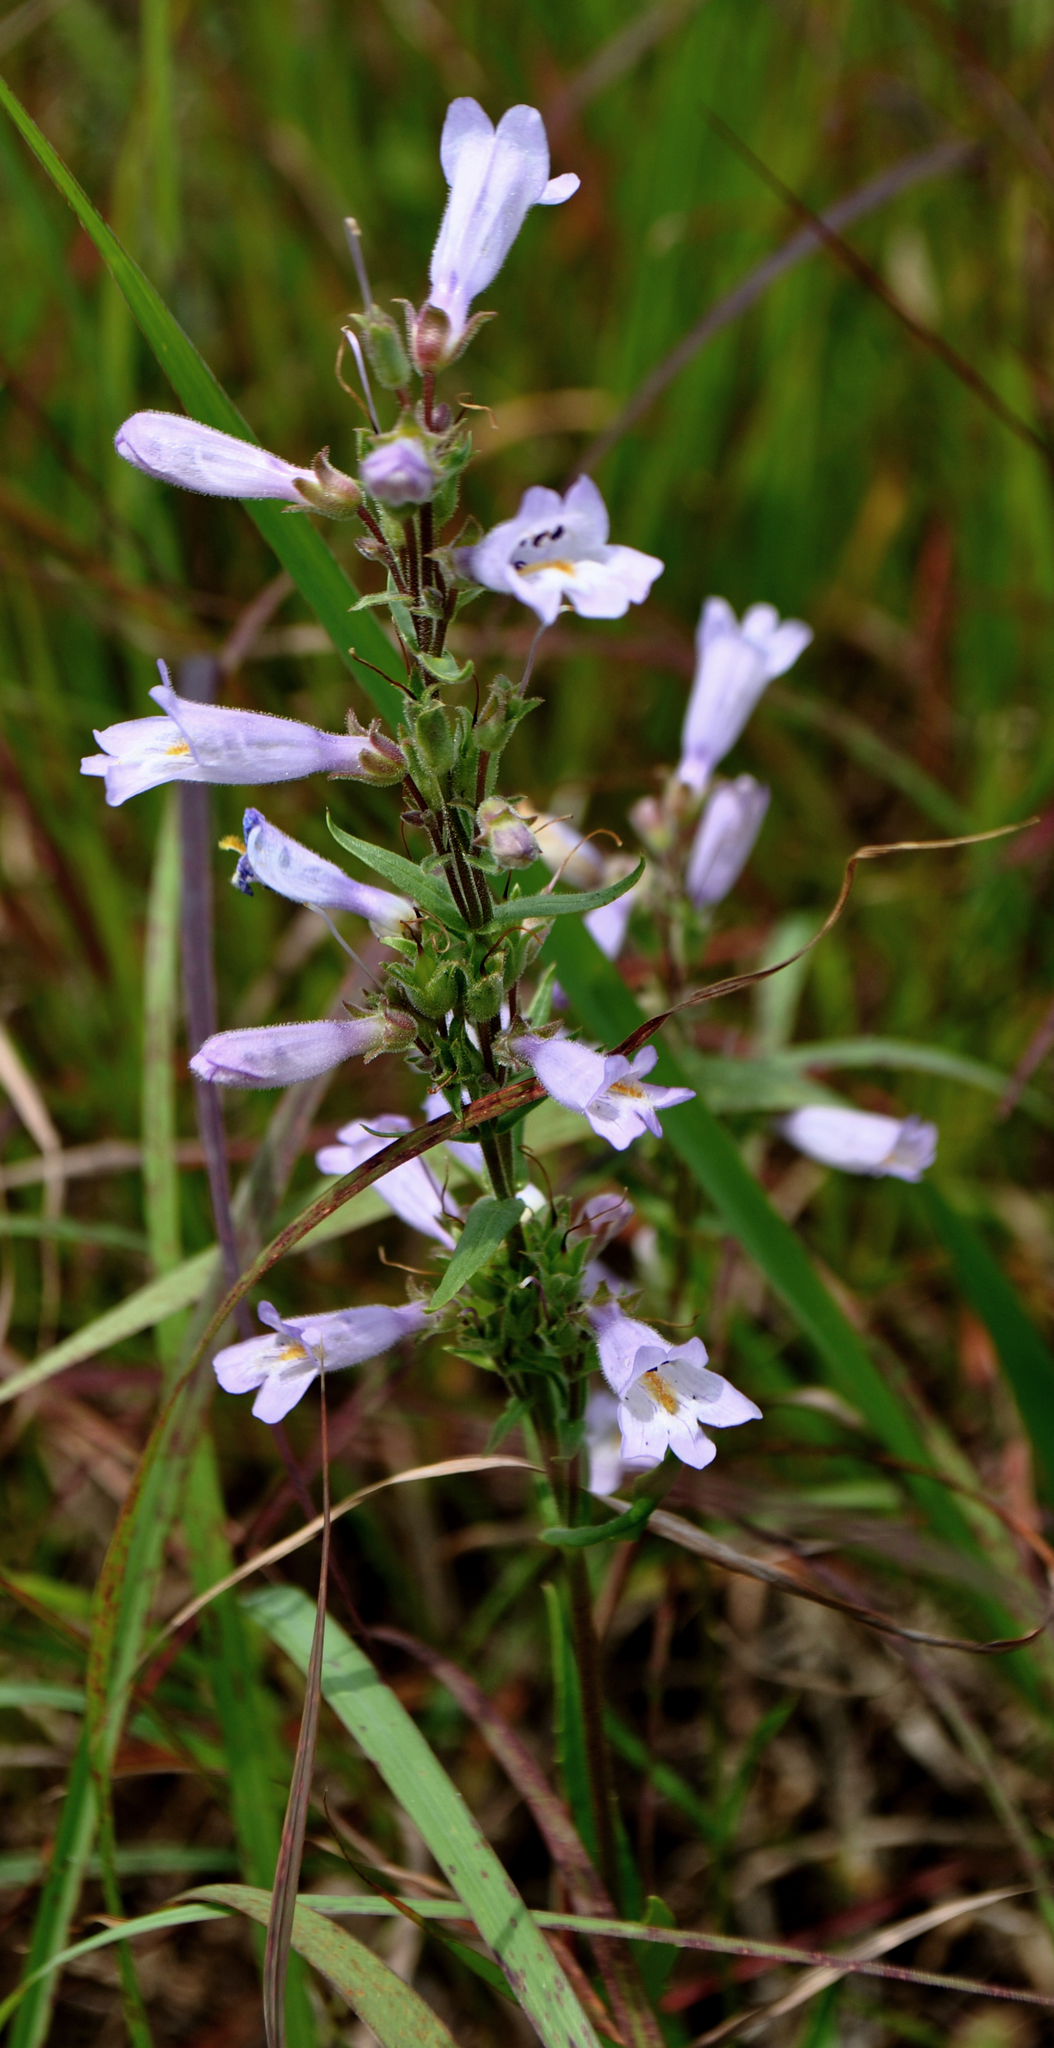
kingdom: Plantae
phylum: Tracheophyta
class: Magnoliopsida
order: Lamiales
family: Plantaginaceae
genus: Penstemon
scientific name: Penstemon gracilis
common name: Slender beardtongue
